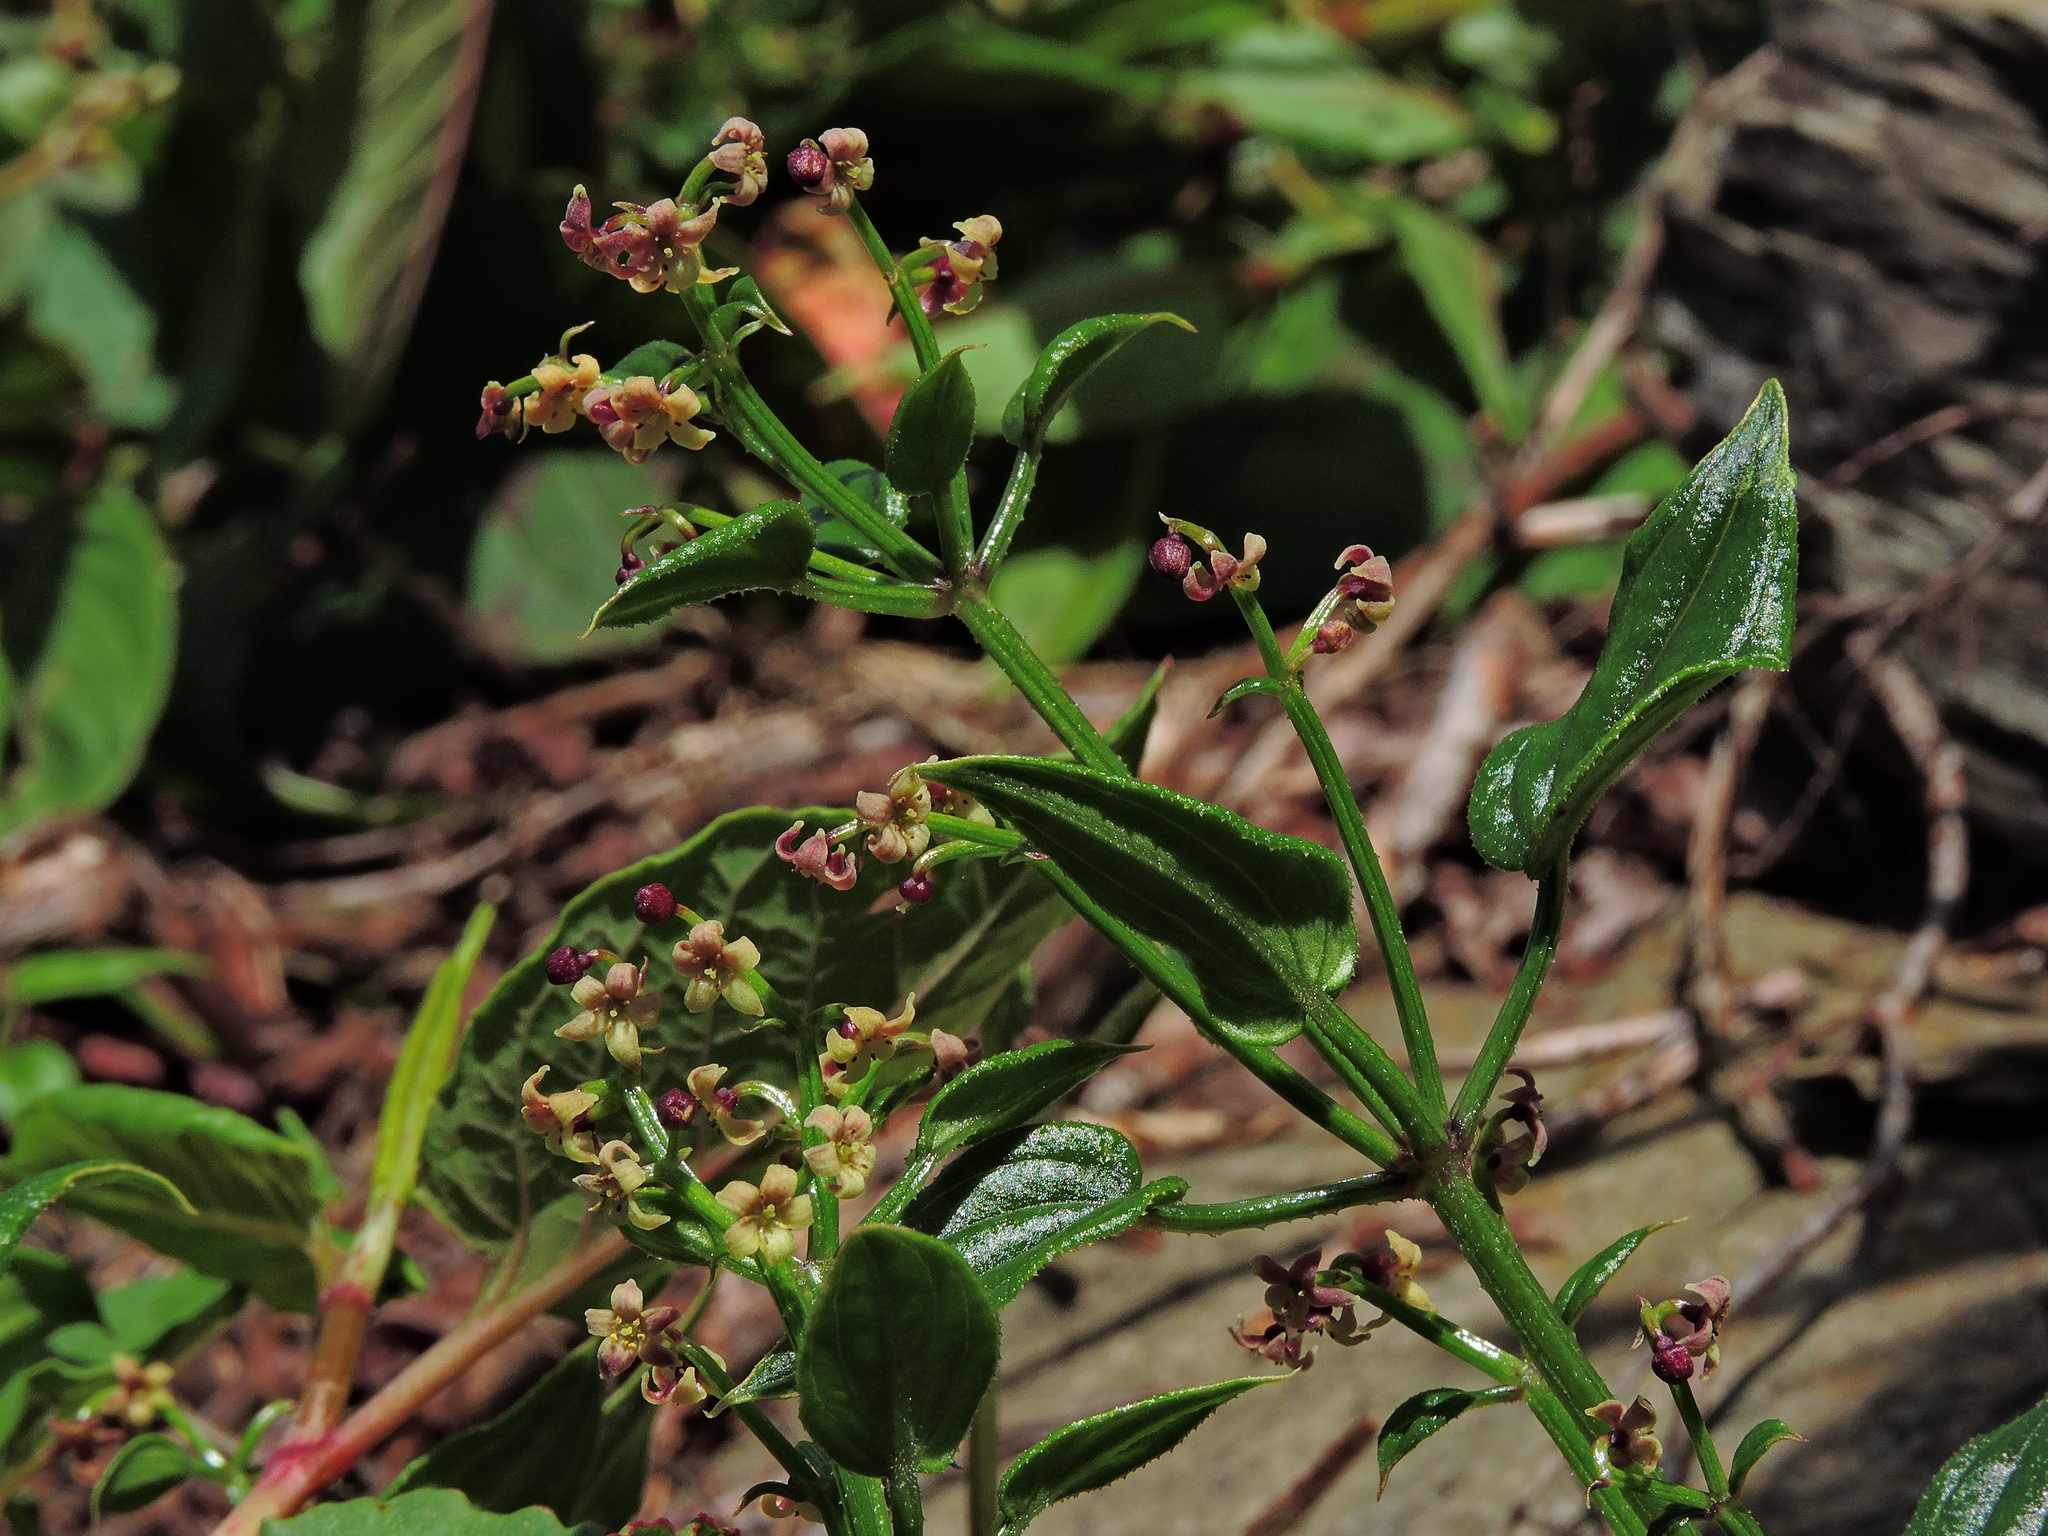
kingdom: Plantae
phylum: Tracheophyta
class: Magnoliopsida
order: Gentianales
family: Rubiaceae
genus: Rubia
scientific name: Rubia argyi
